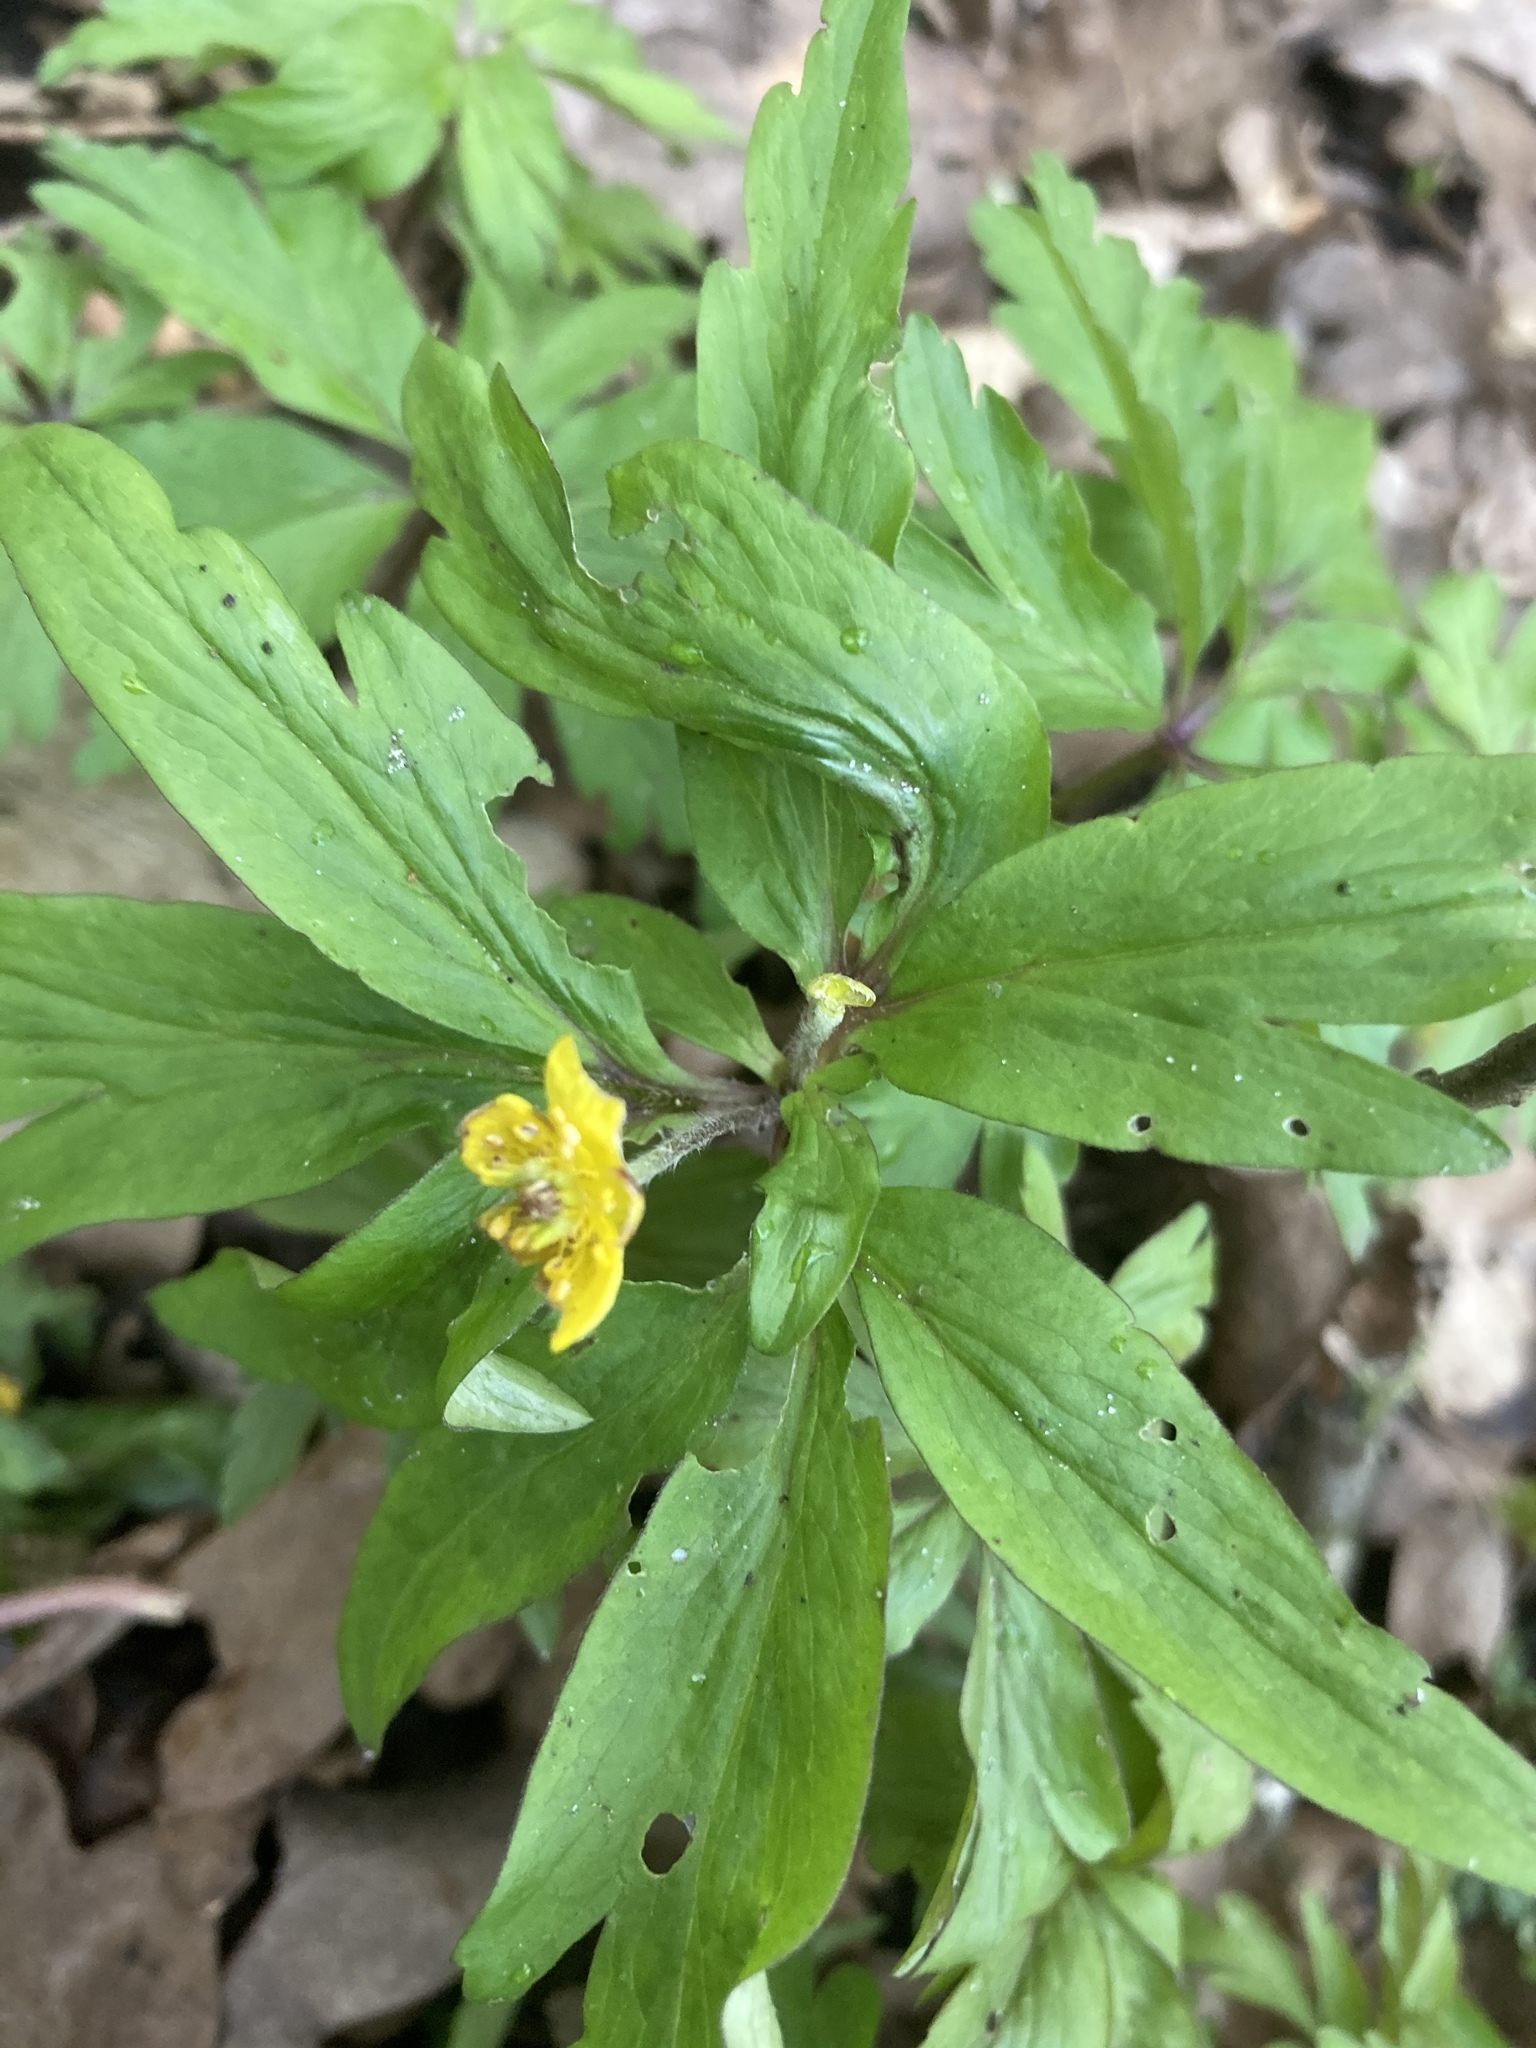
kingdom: Plantae
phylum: Tracheophyta
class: Magnoliopsida
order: Ranunculales
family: Ranunculaceae
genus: Anemone
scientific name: Anemone ranunculoides
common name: Yellow anemone
